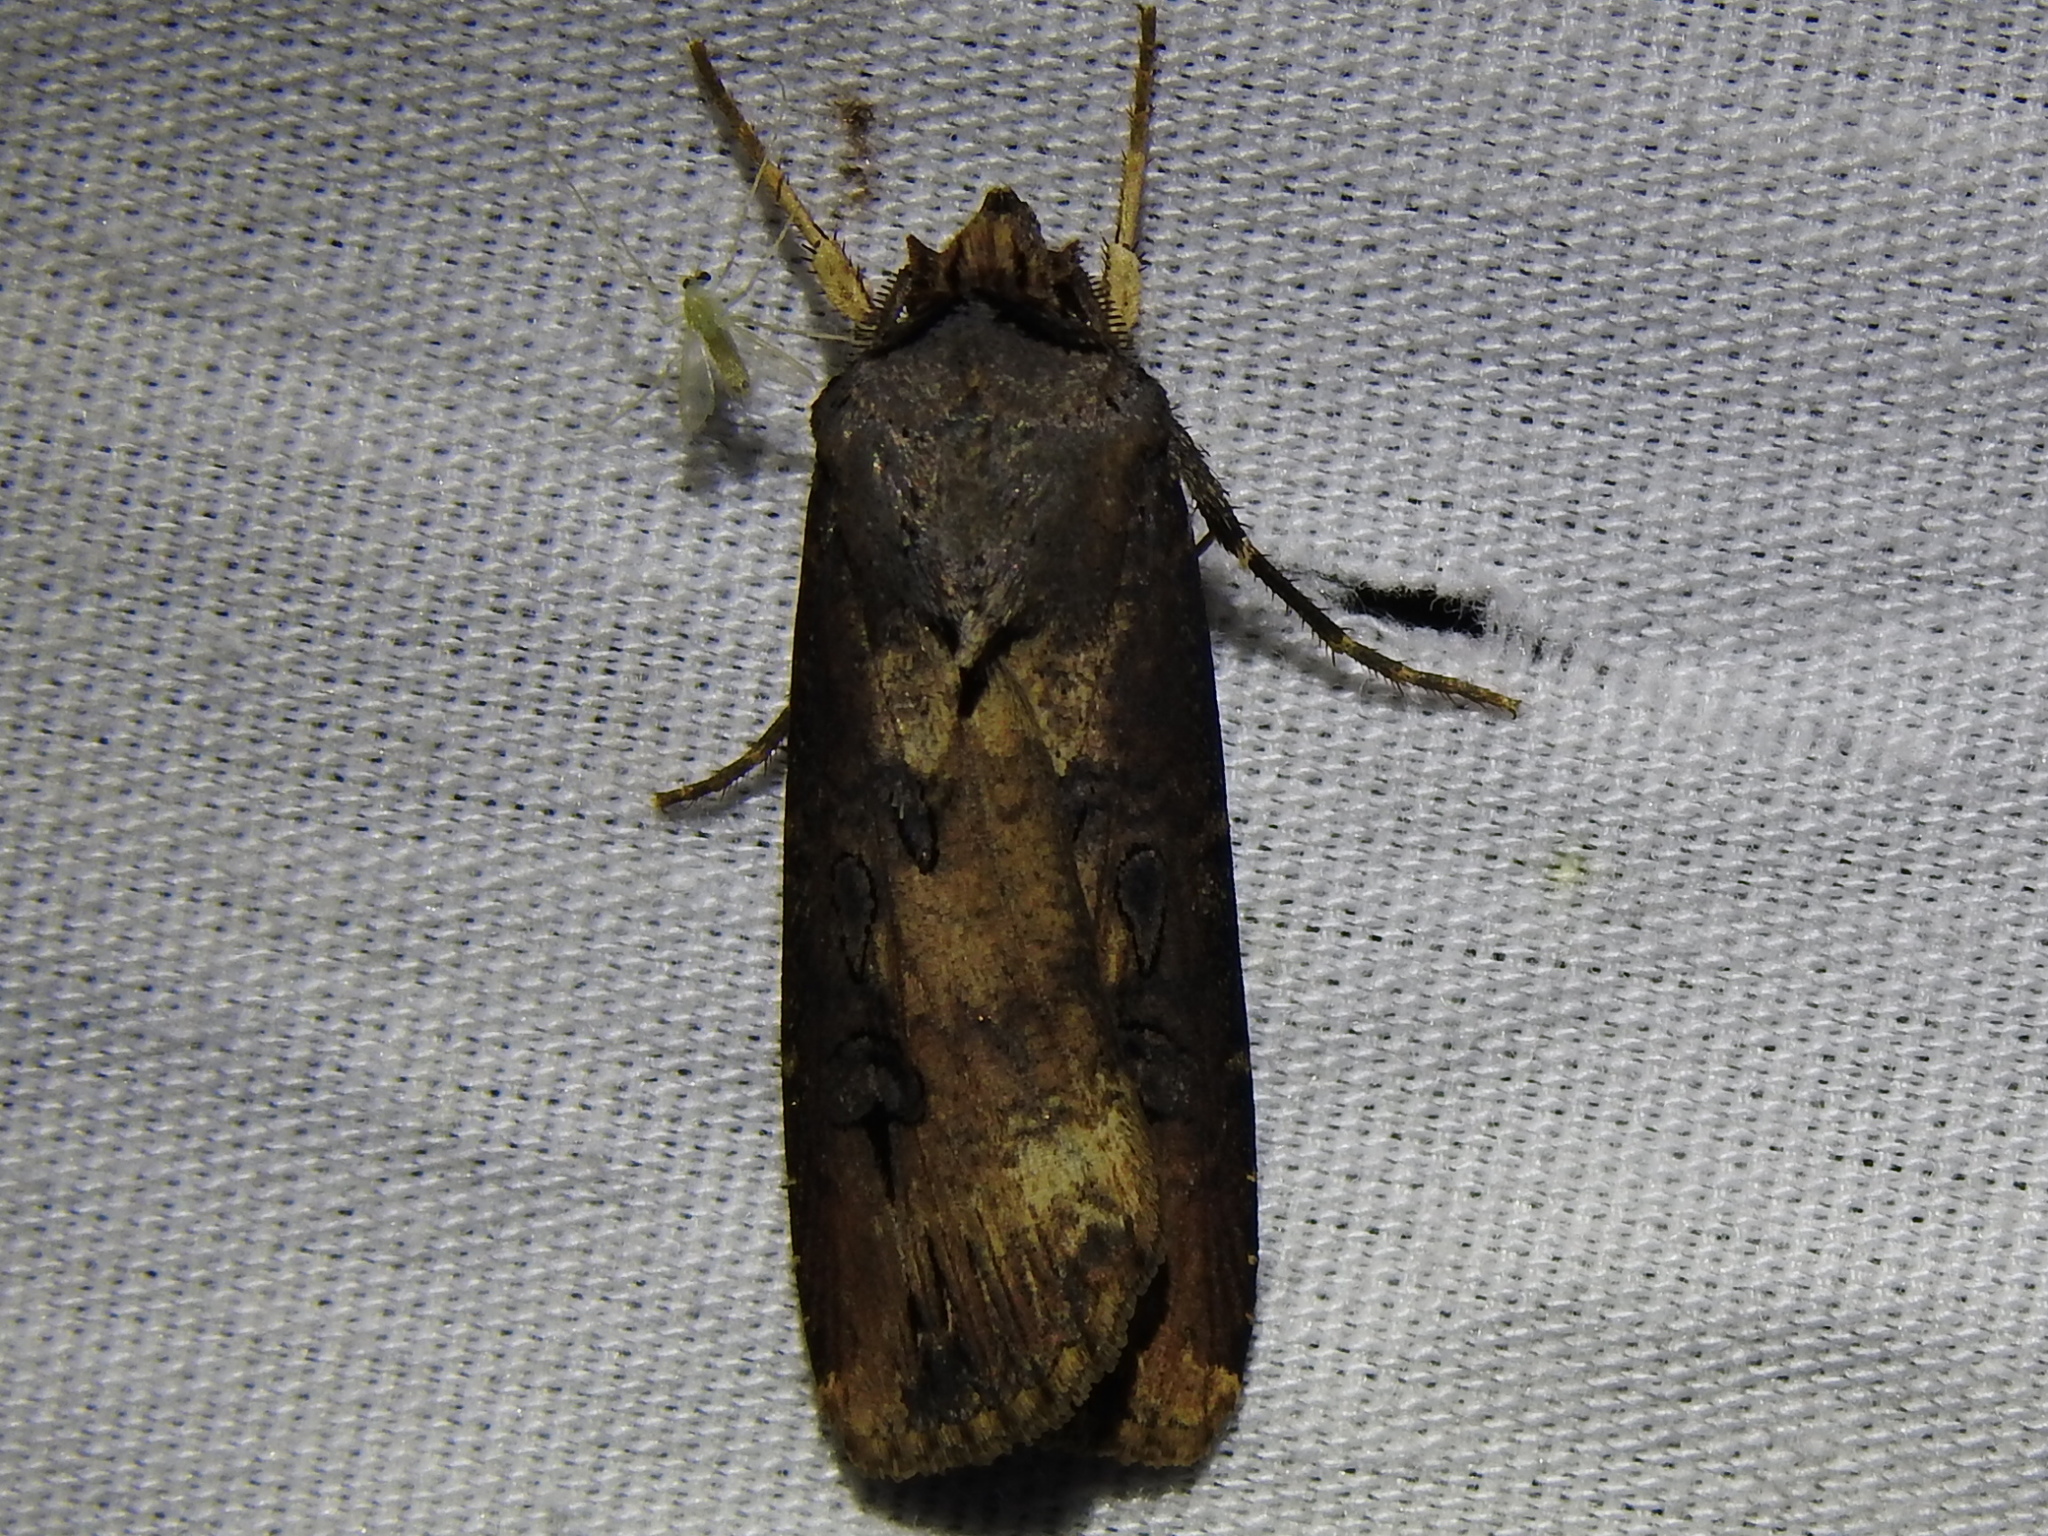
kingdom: Animalia
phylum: Arthropoda
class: Insecta
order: Lepidoptera
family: Noctuidae
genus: Agrotis
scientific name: Agrotis ipsilon
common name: Dark sword-grass
